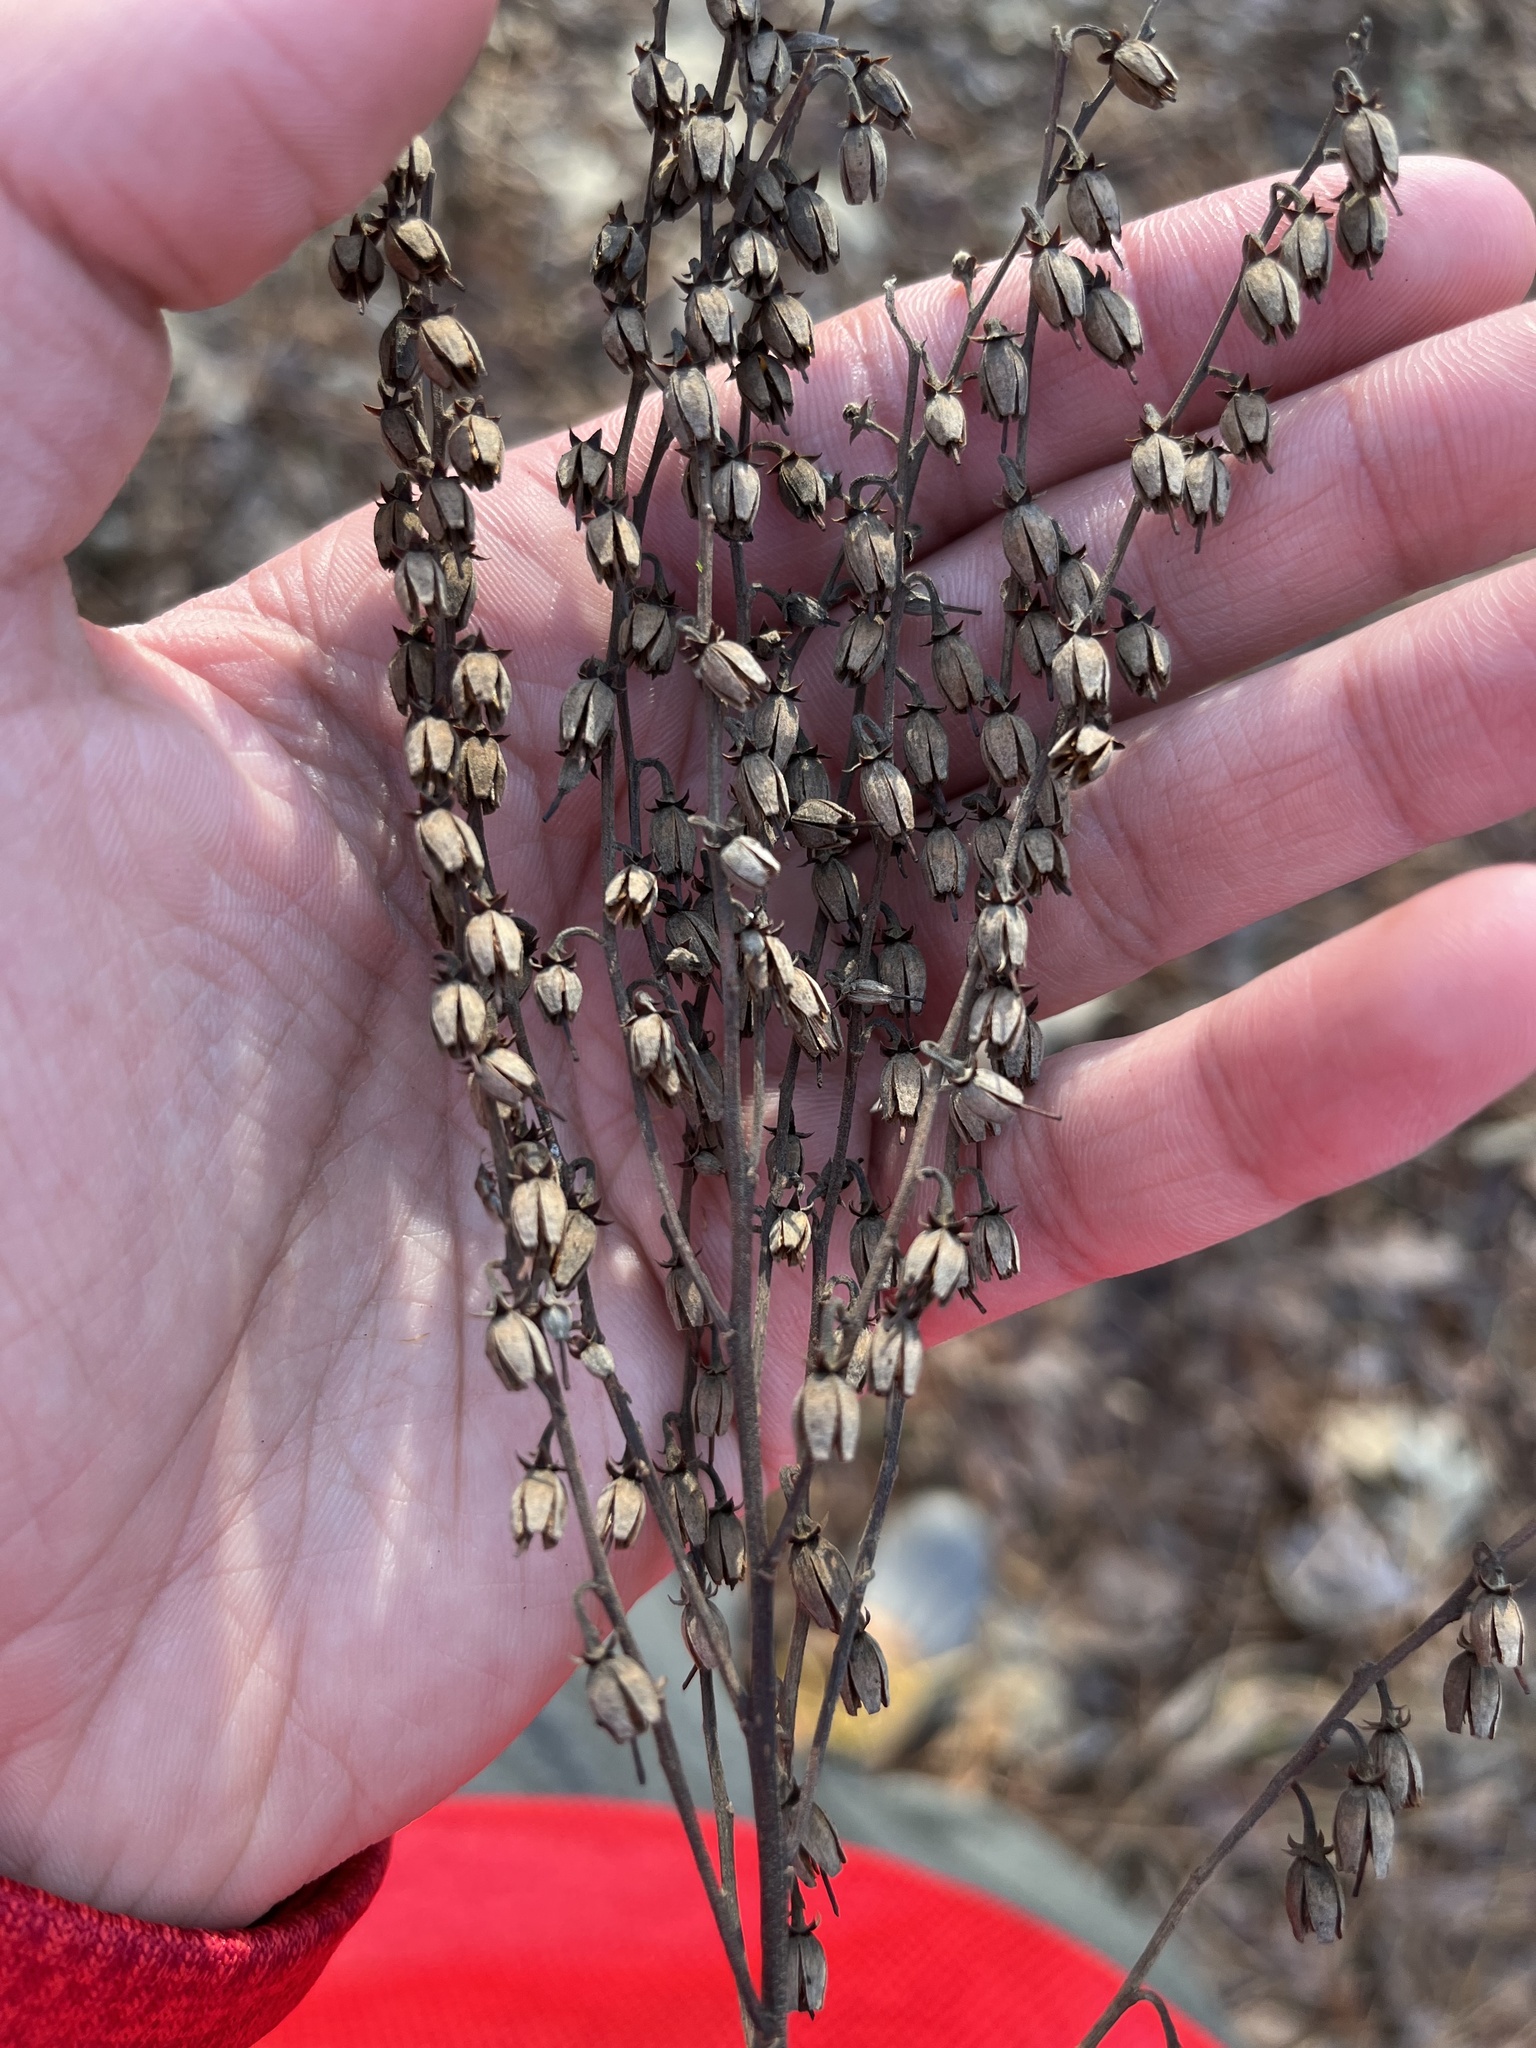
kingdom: Plantae
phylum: Tracheophyta
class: Magnoliopsida
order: Ericales
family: Ericaceae
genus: Oxydendrum
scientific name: Oxydendrum arboreum
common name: Sourwood
